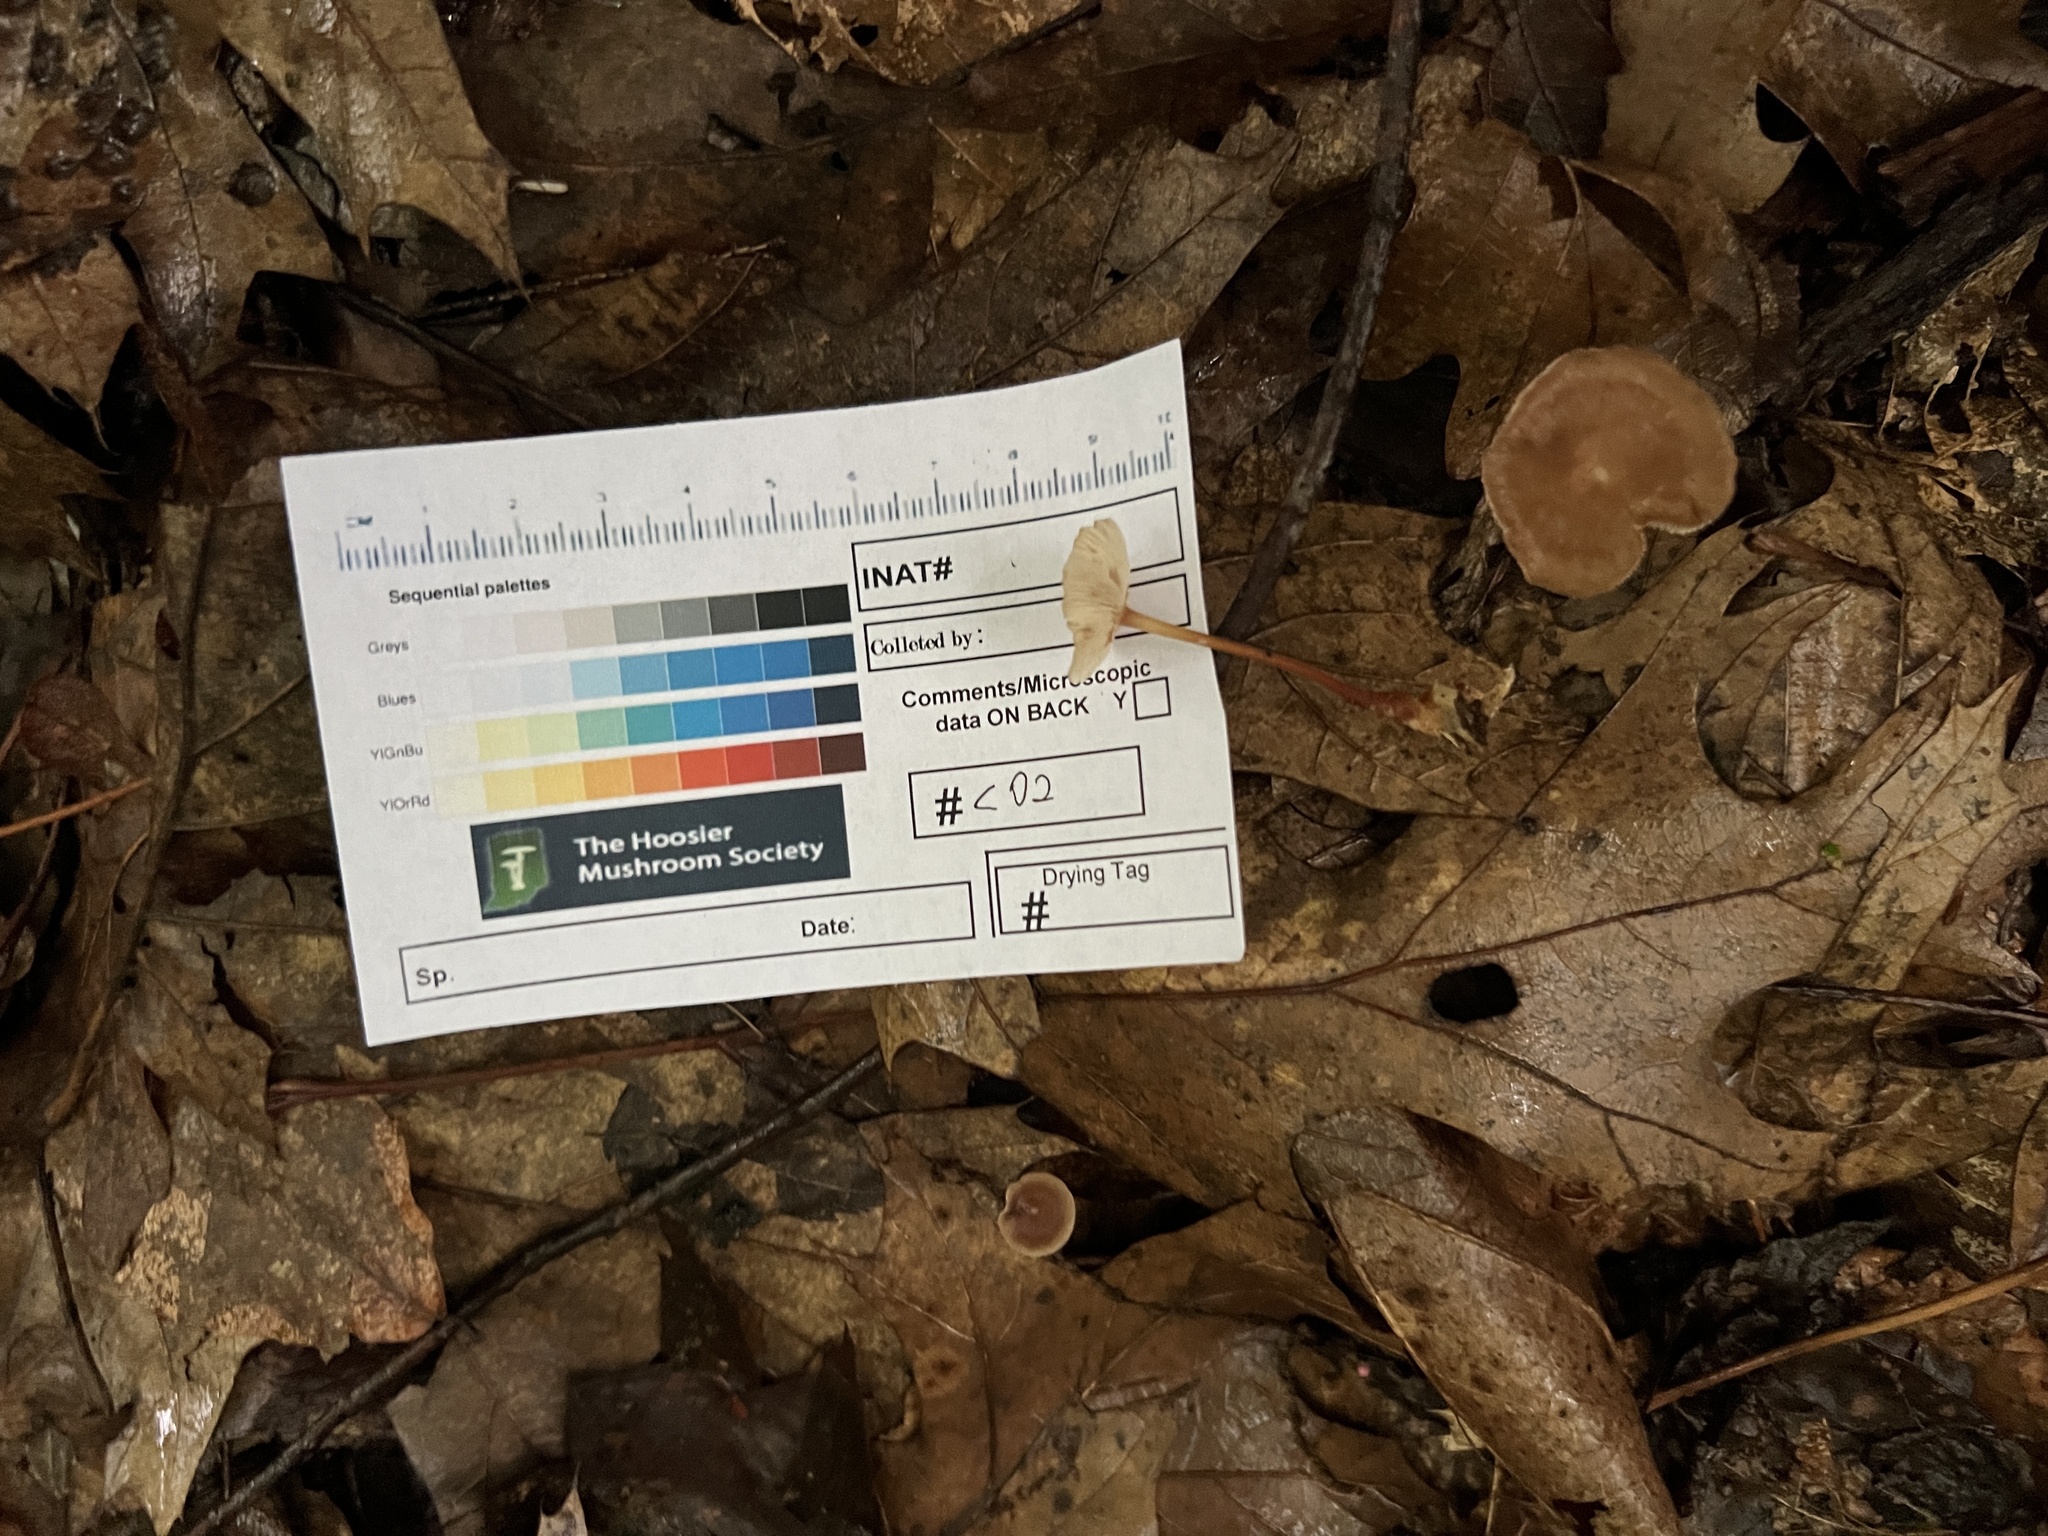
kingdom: Fungi
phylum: Basidiomycota
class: Agaricomycetes
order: Agaricales
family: Omphalotaceae
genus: Collybiopsis
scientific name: Collybiopsis biformis
